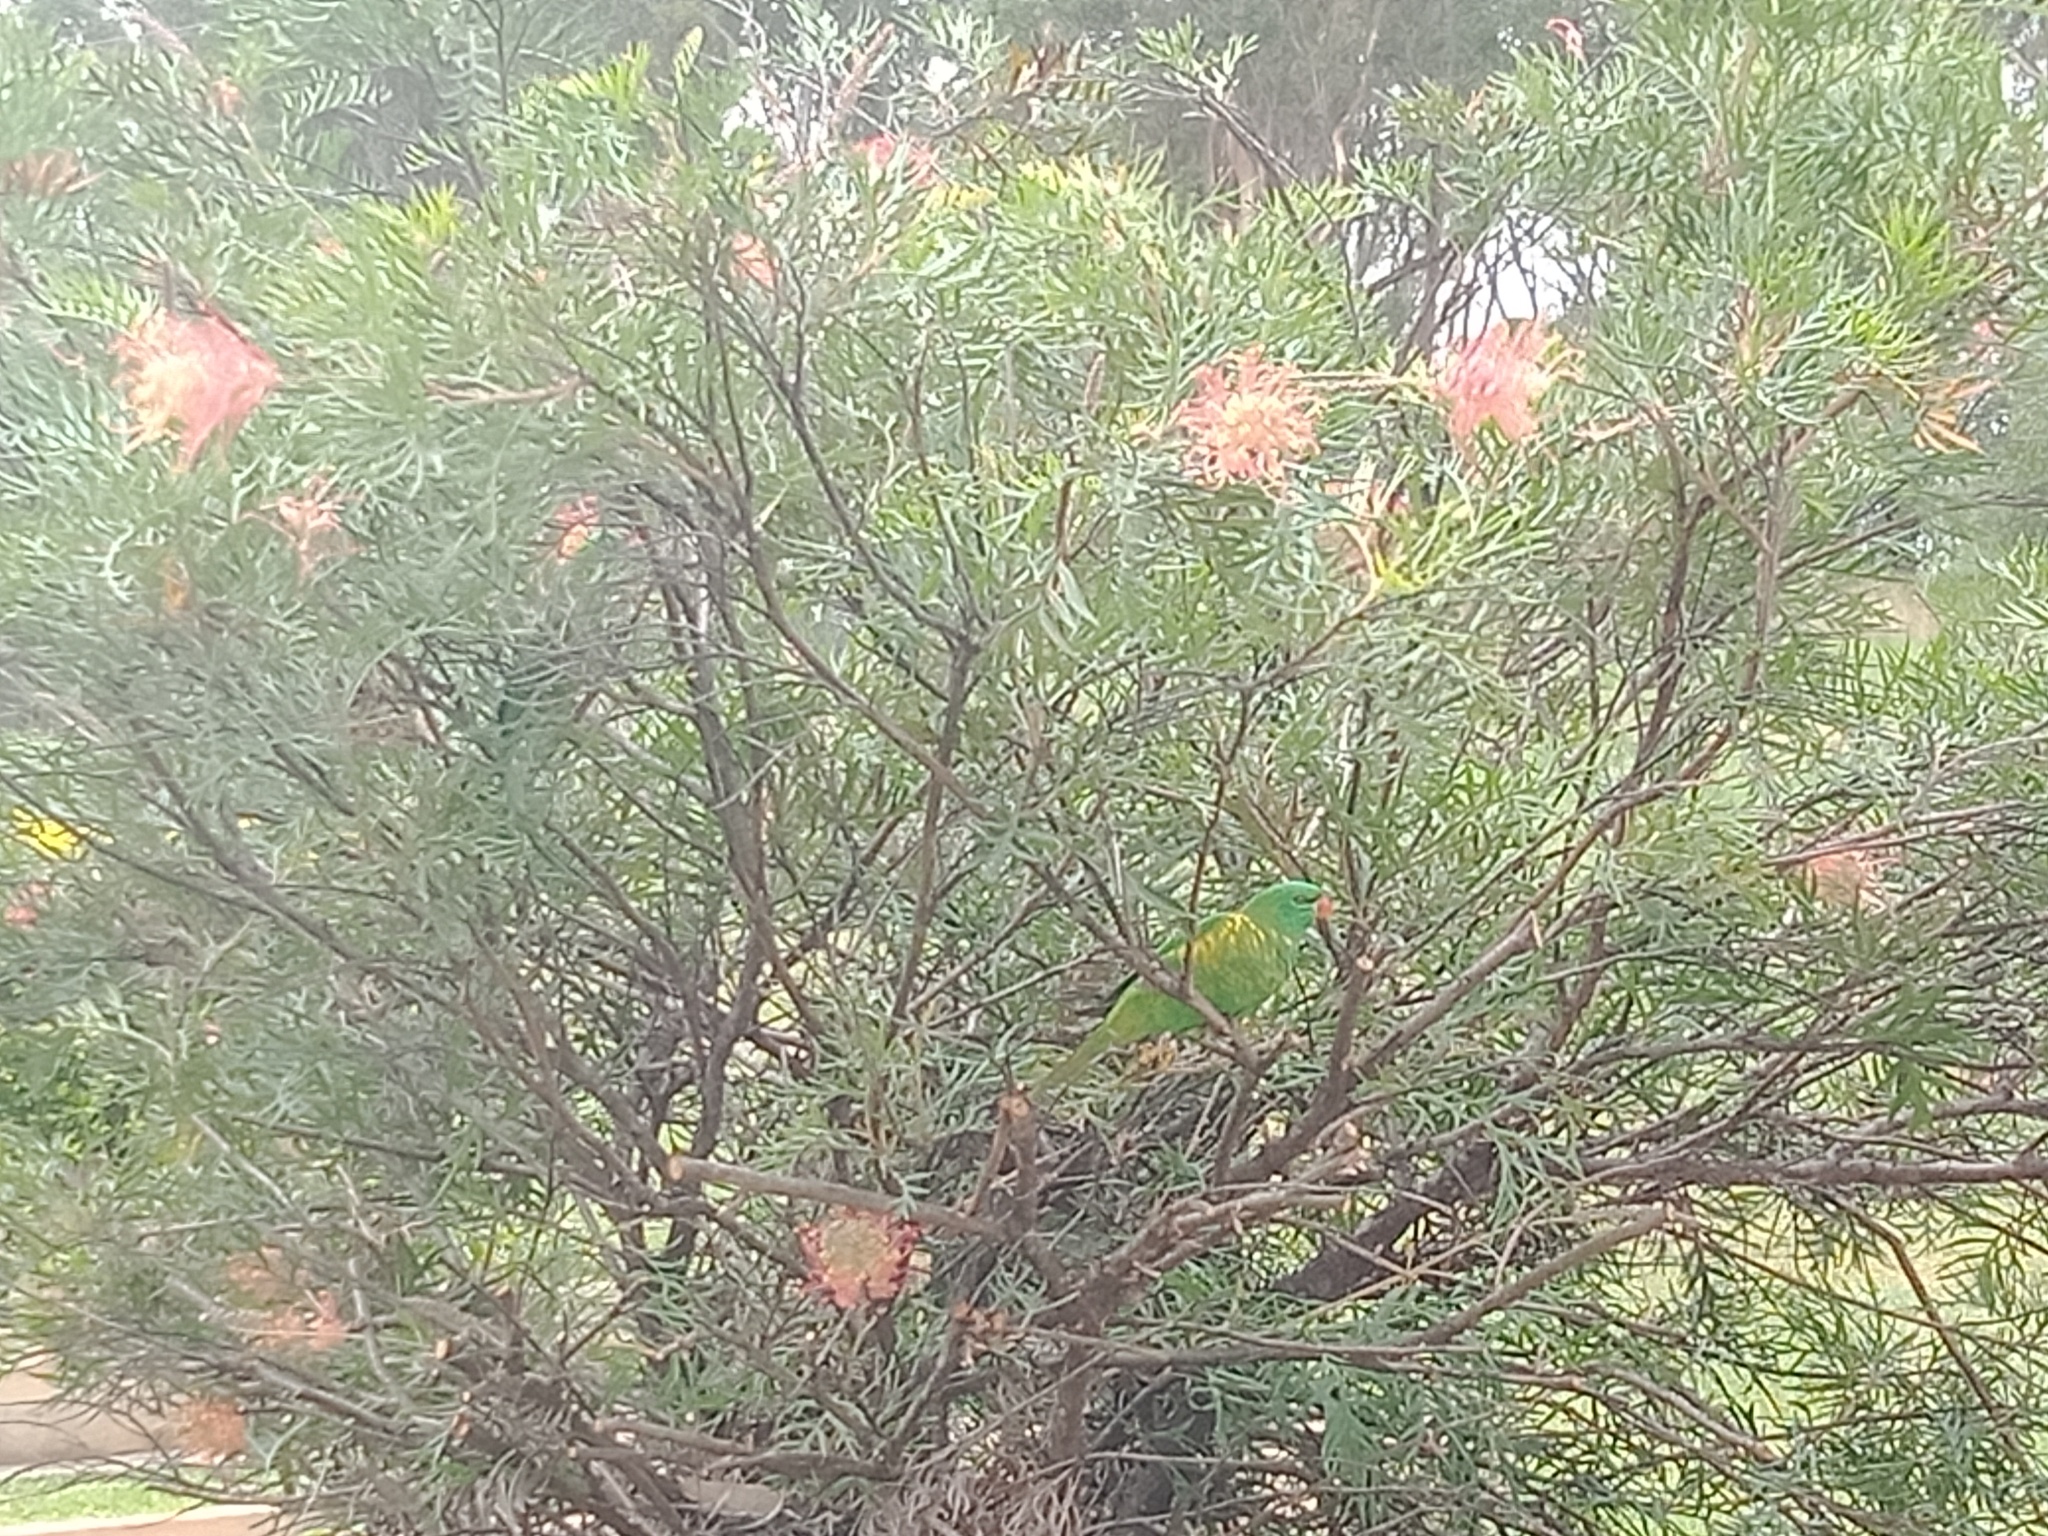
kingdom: Animalia
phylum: Chordata
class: Aves
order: Psittaciformes
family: Psittacidae
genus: Trichoglossus
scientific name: Trichoglossus chlorolepidotus
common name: Scaly-breasted lorikeet
